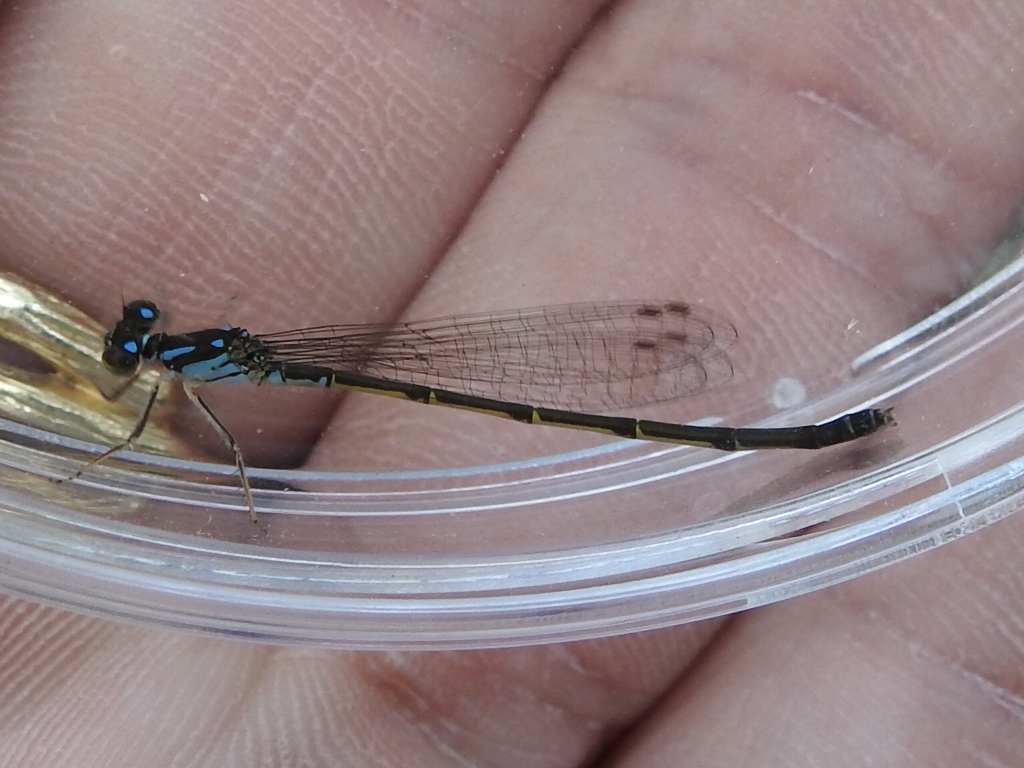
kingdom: Animalia
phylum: Arthropoda
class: Insecta
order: Odonata
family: Coenagrionidae
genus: Ischnura
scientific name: Ischnura posita
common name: Fragile forktail
